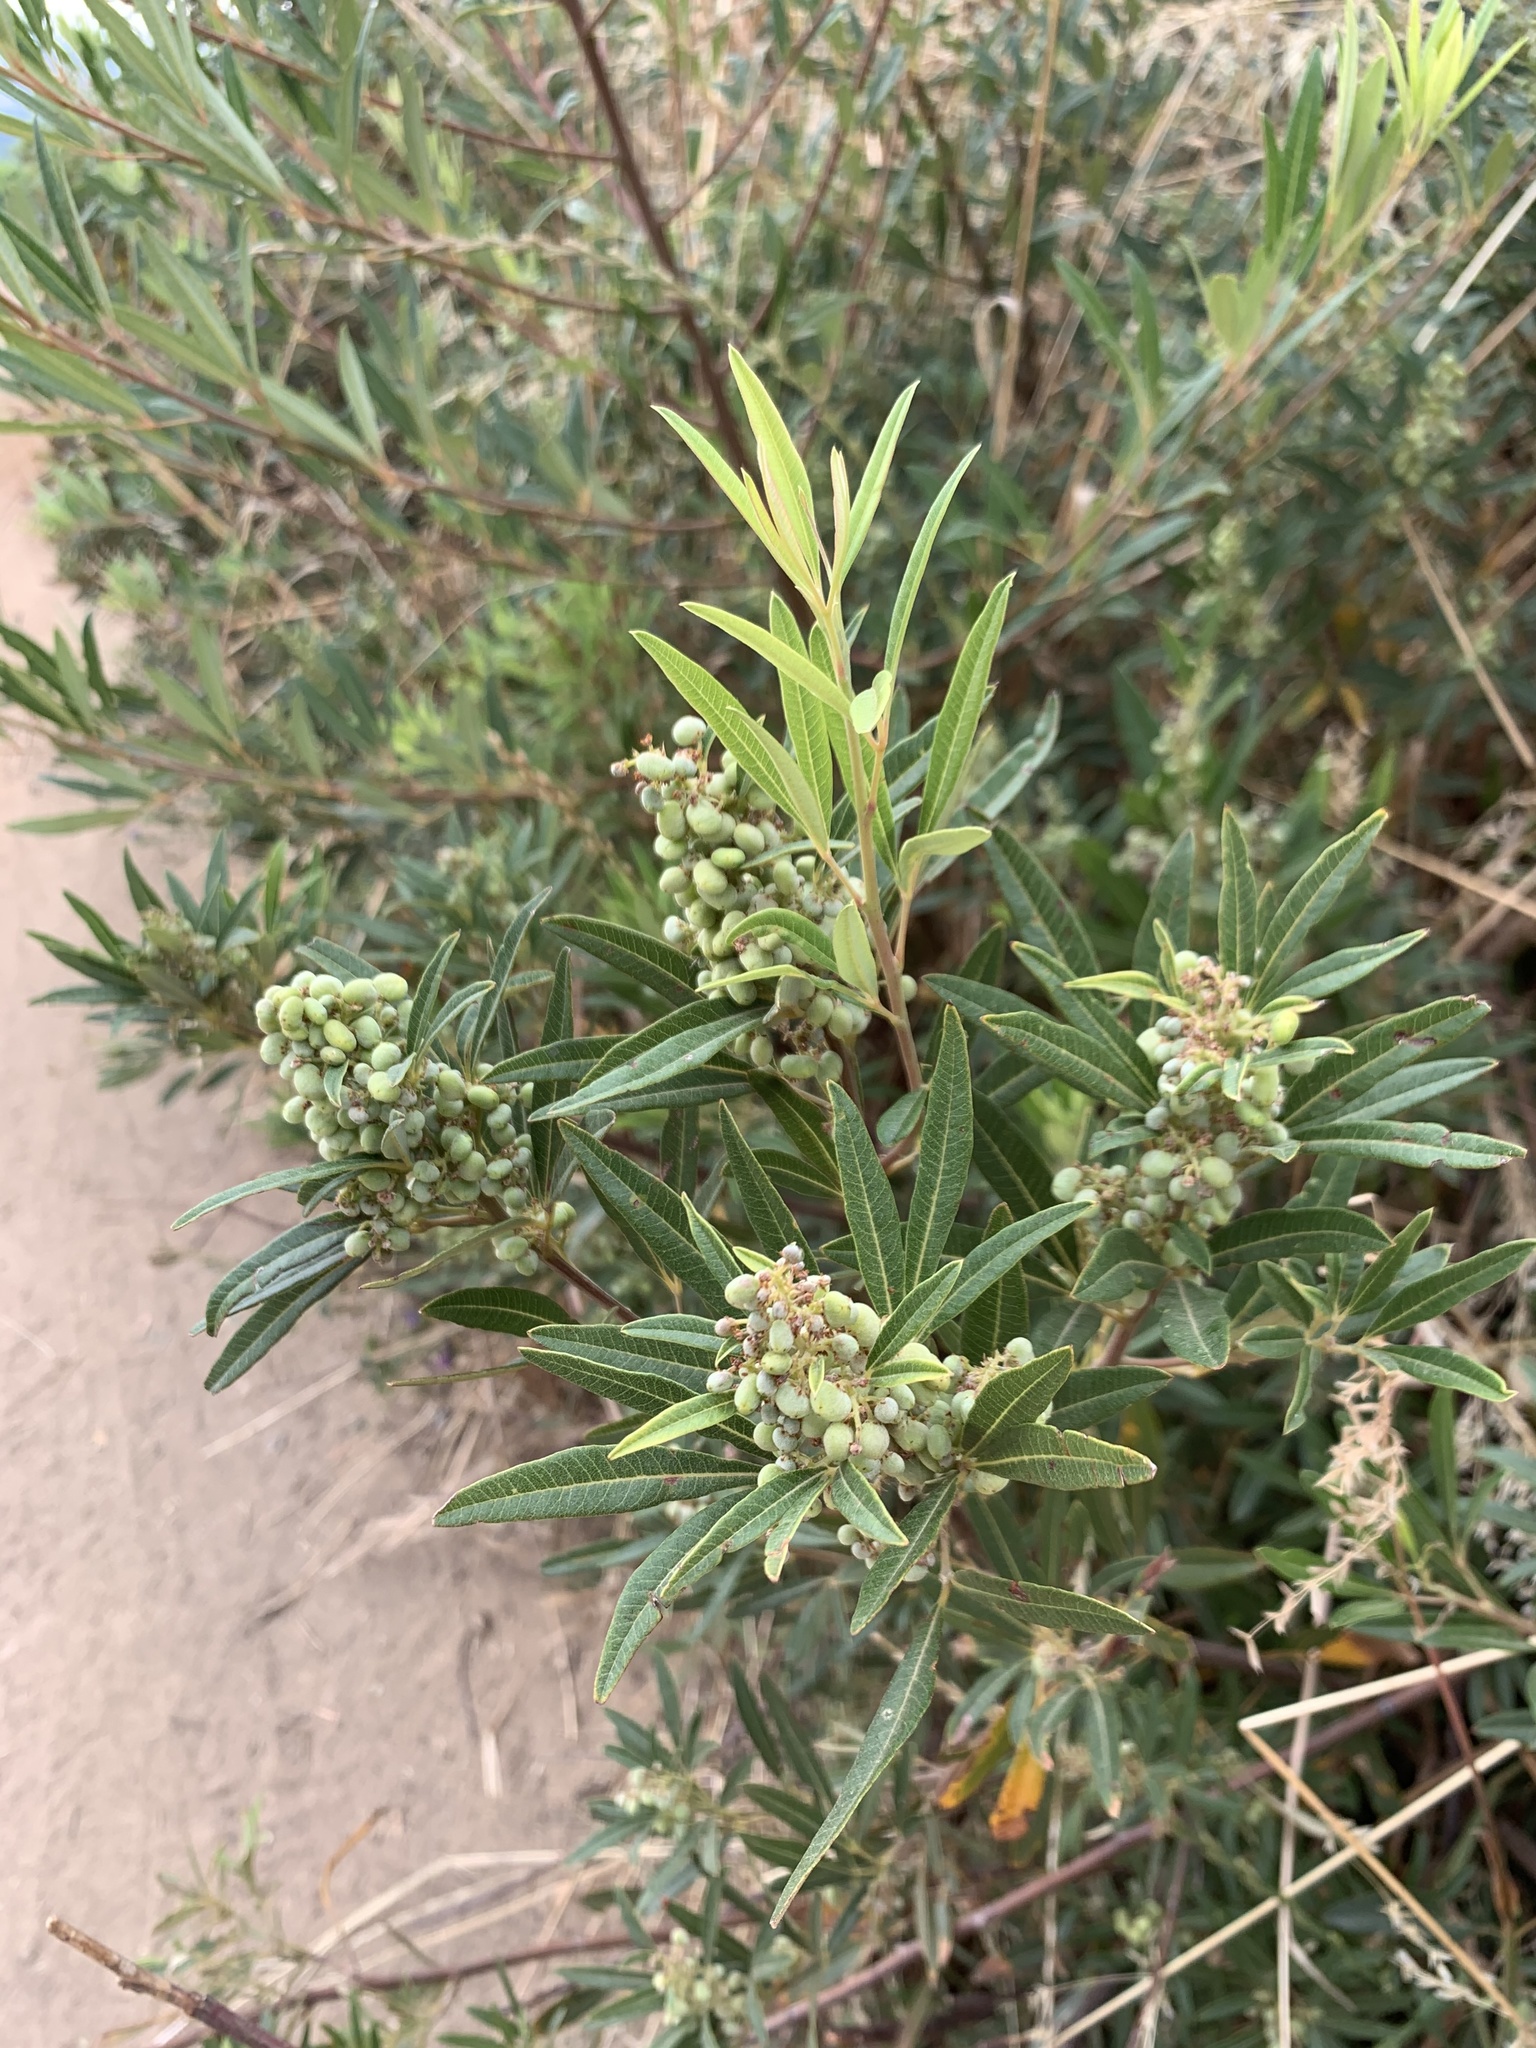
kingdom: Plantae
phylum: Tracheophyta
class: Magnoliopsida
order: Sapindales
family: Anacardiaceae
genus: Searsia
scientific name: Searsia angustifolia
